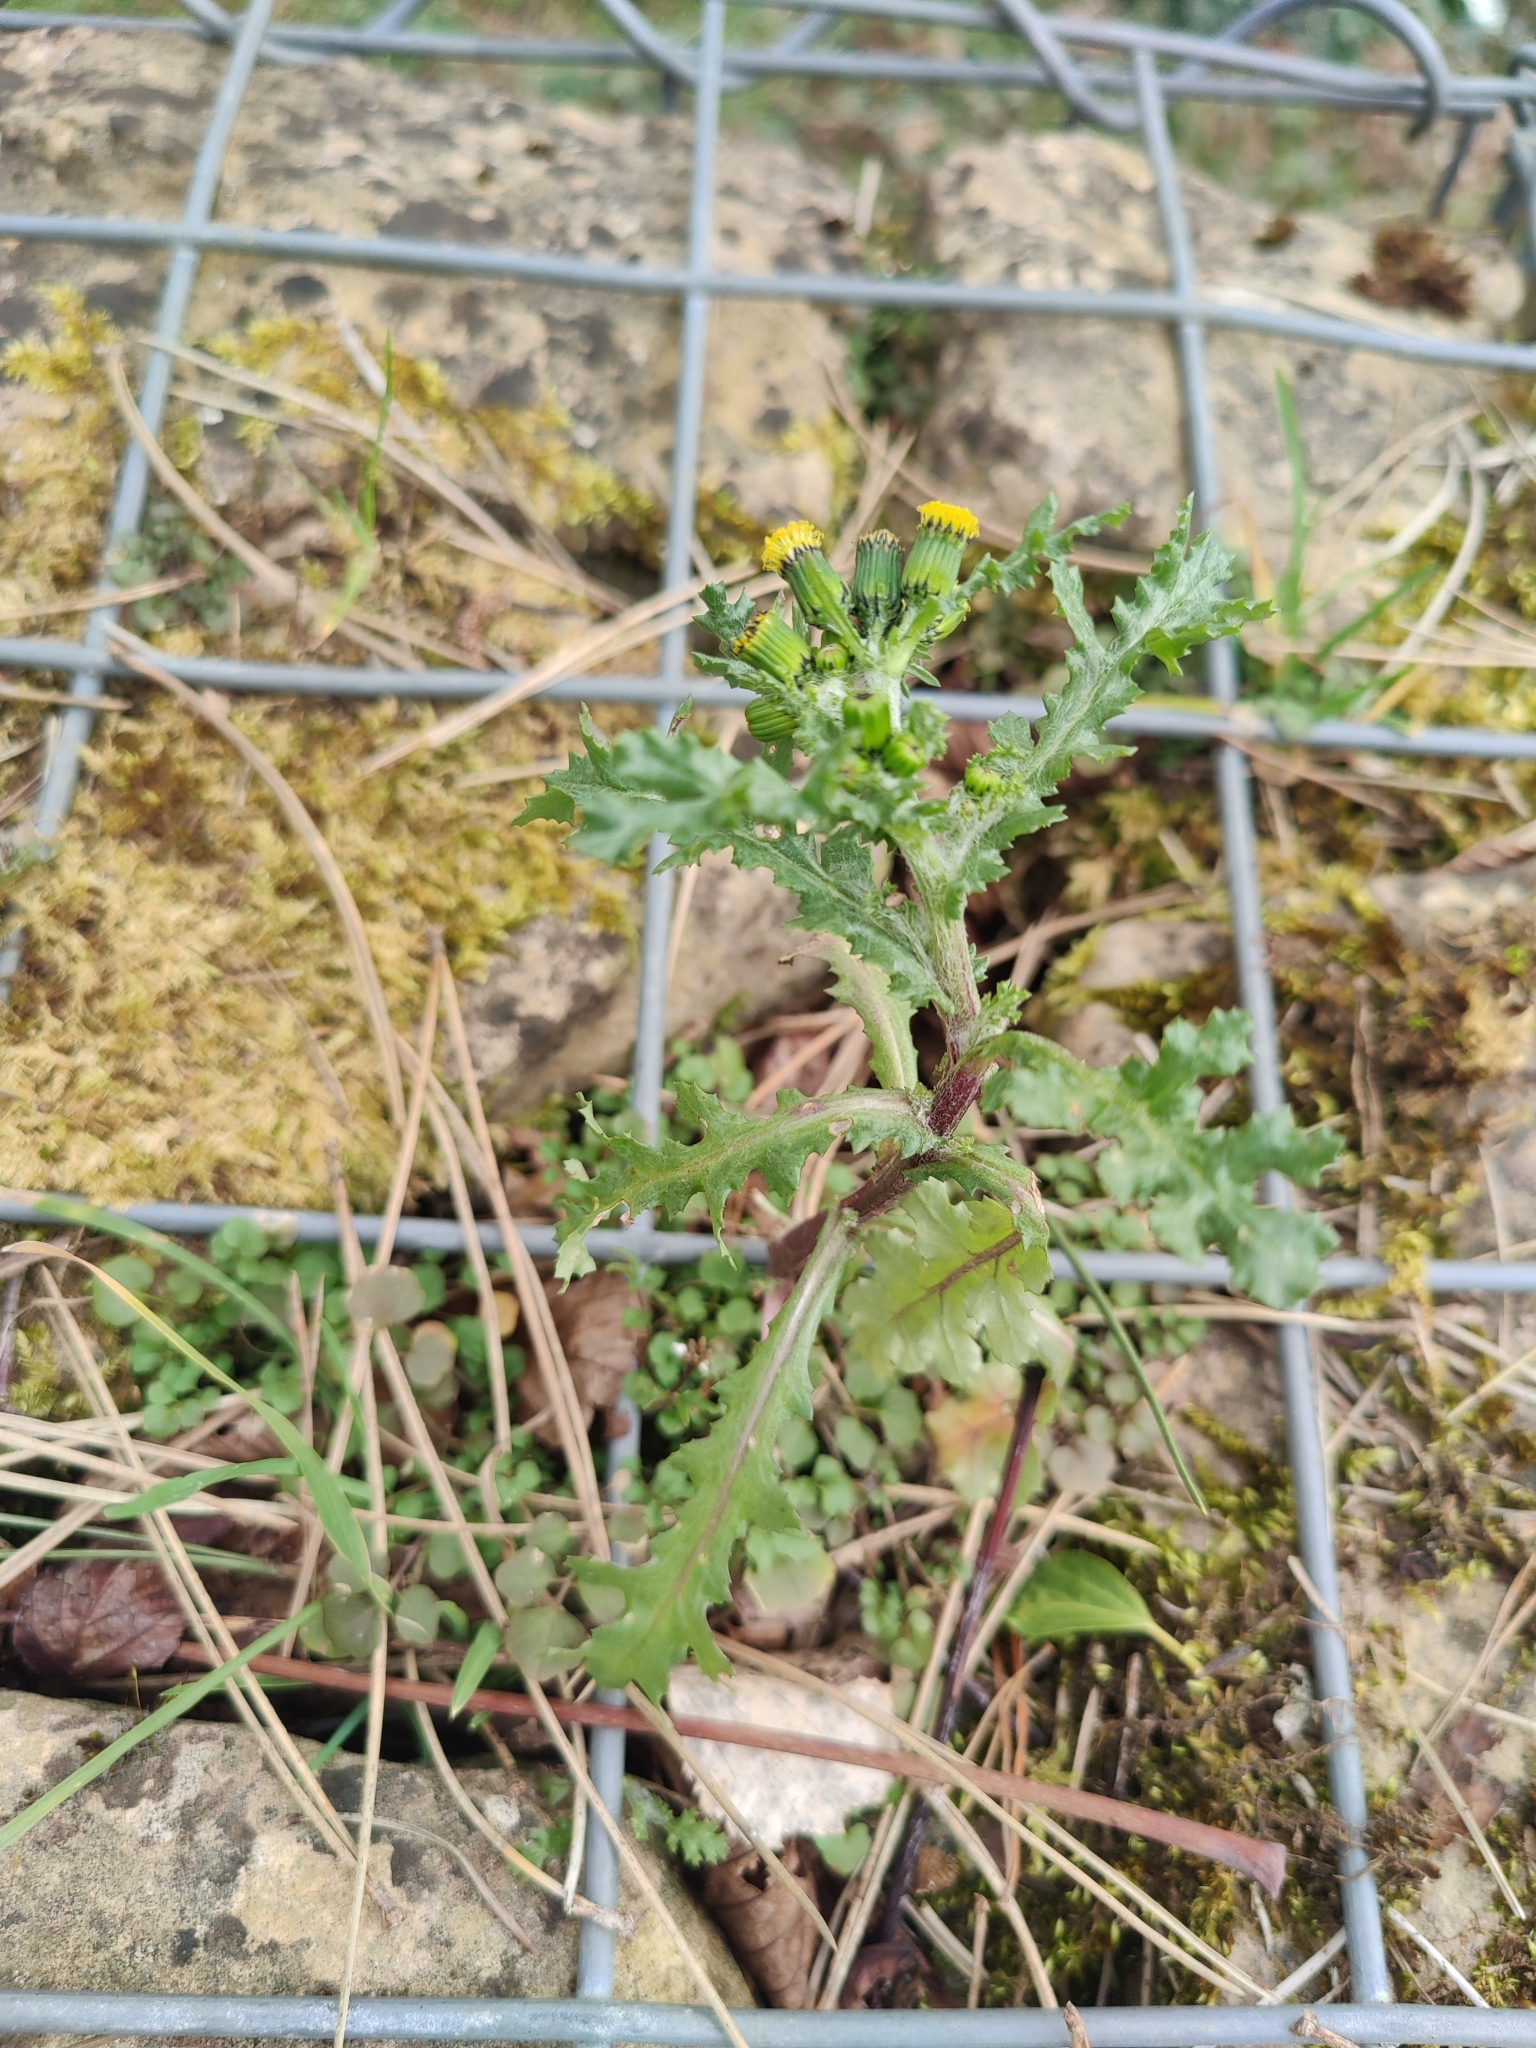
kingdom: Plantae
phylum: Tracheophyta
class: Magnoliopsida
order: Asterales
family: Asteraceae
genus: Senecio
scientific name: Senecio vulgaris
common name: Old-man-in-the-spring
